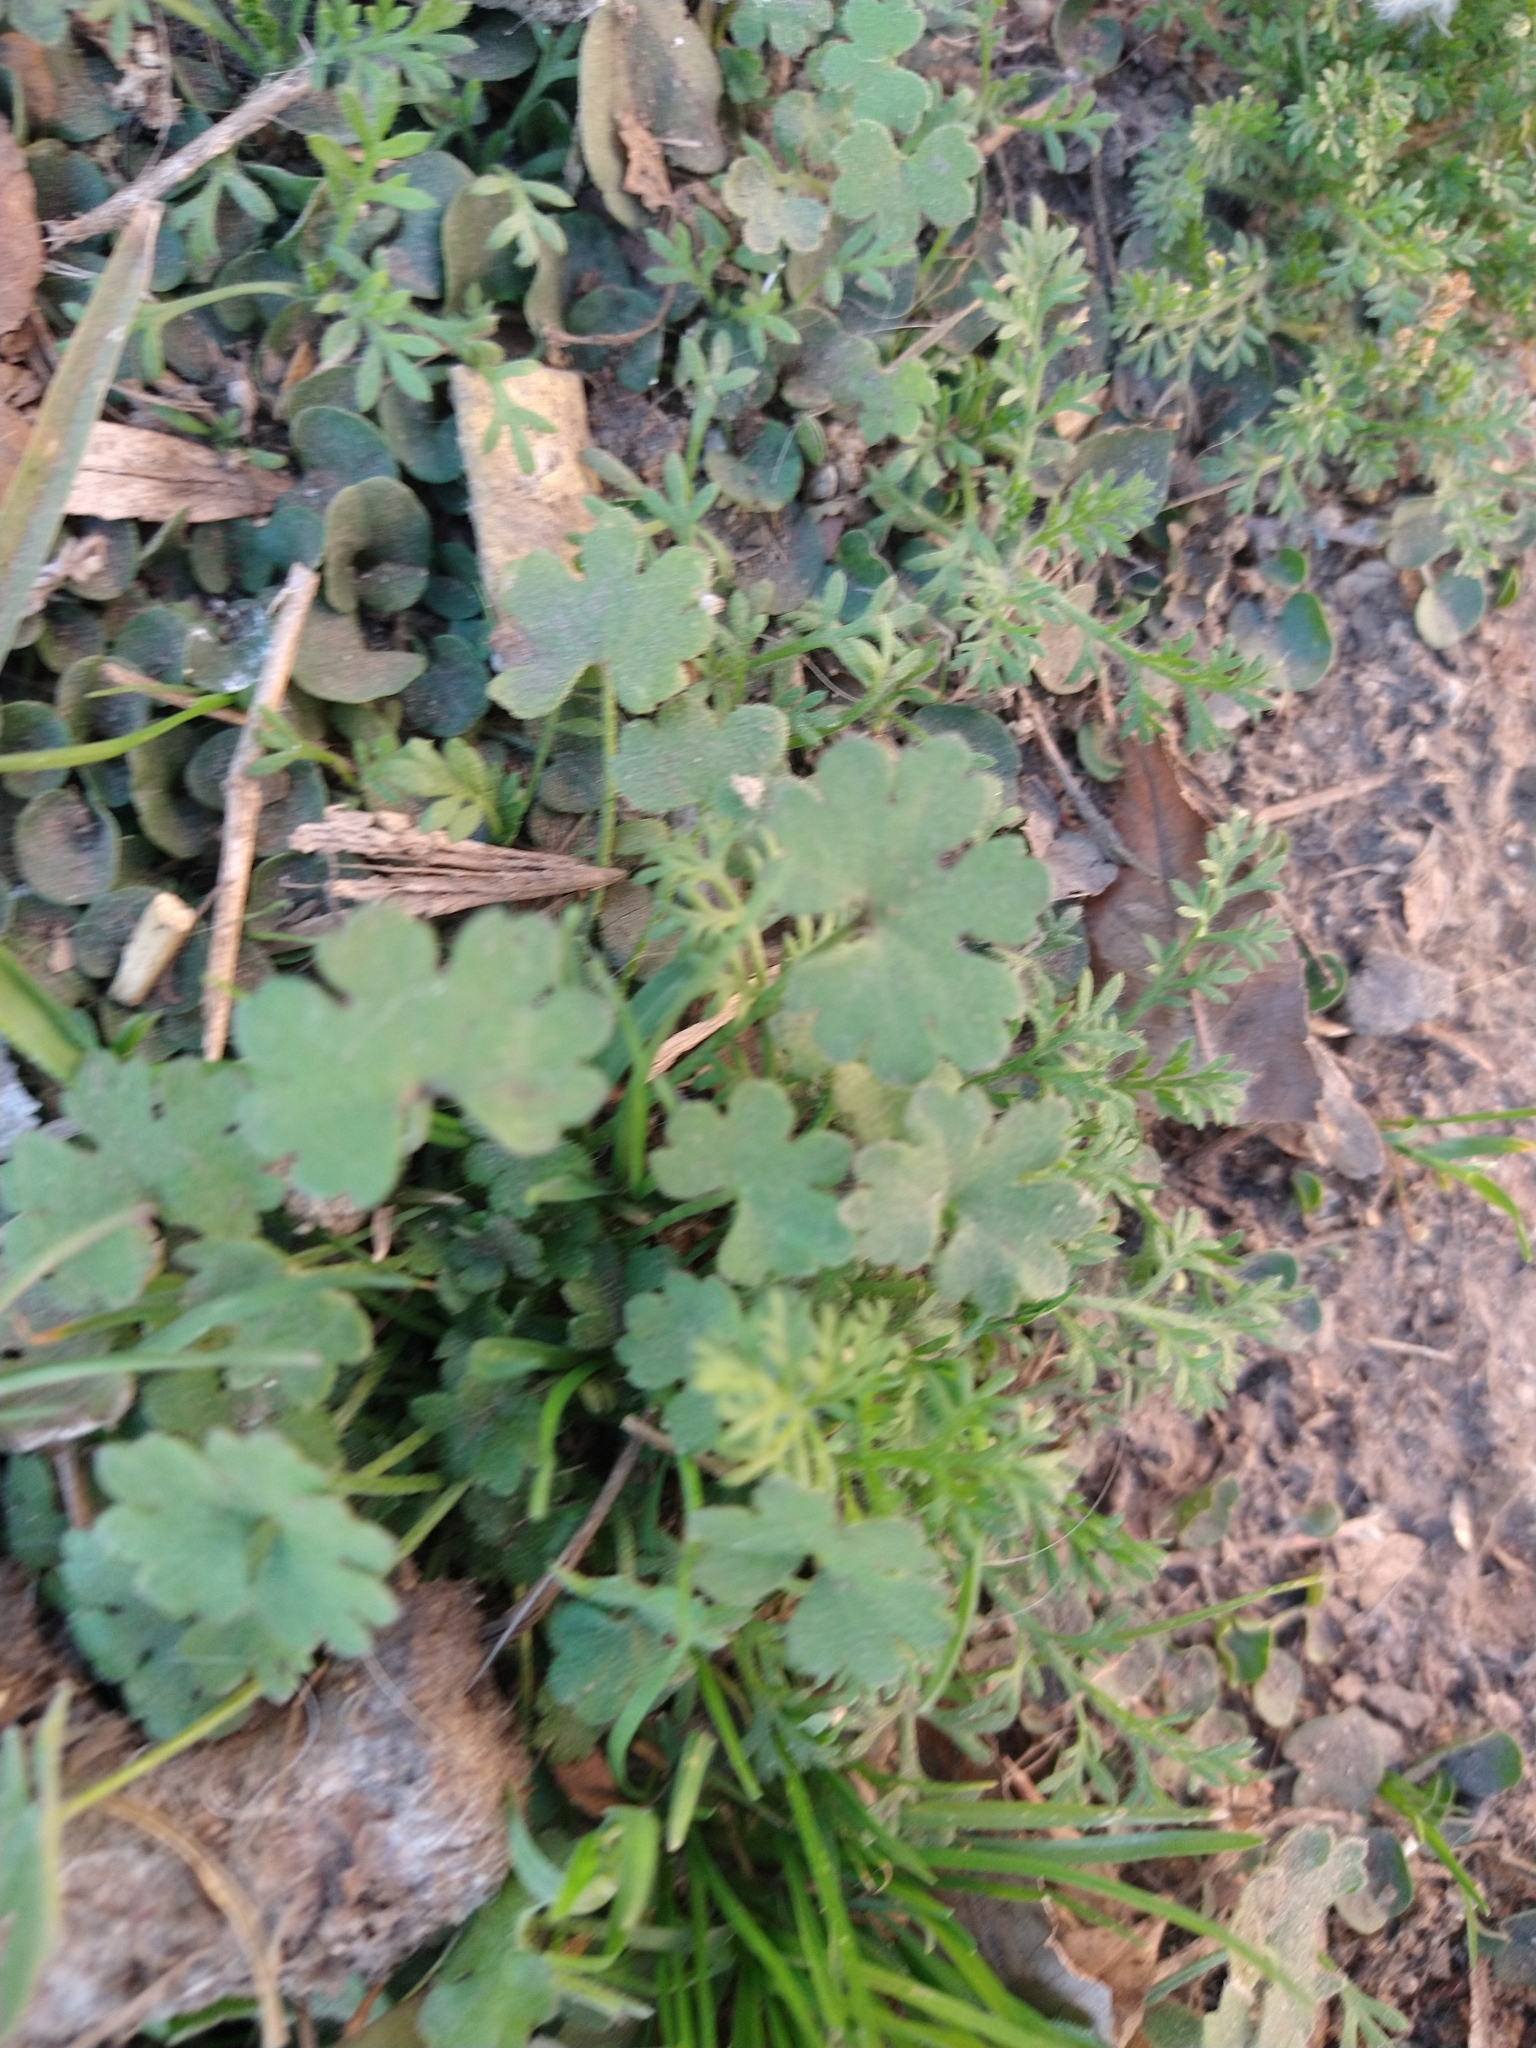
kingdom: Plantae
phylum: Tracheophyta
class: Magnoliopsida
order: Apiales
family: Apiaceae
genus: Bowlesia
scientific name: Bowlesia incana
